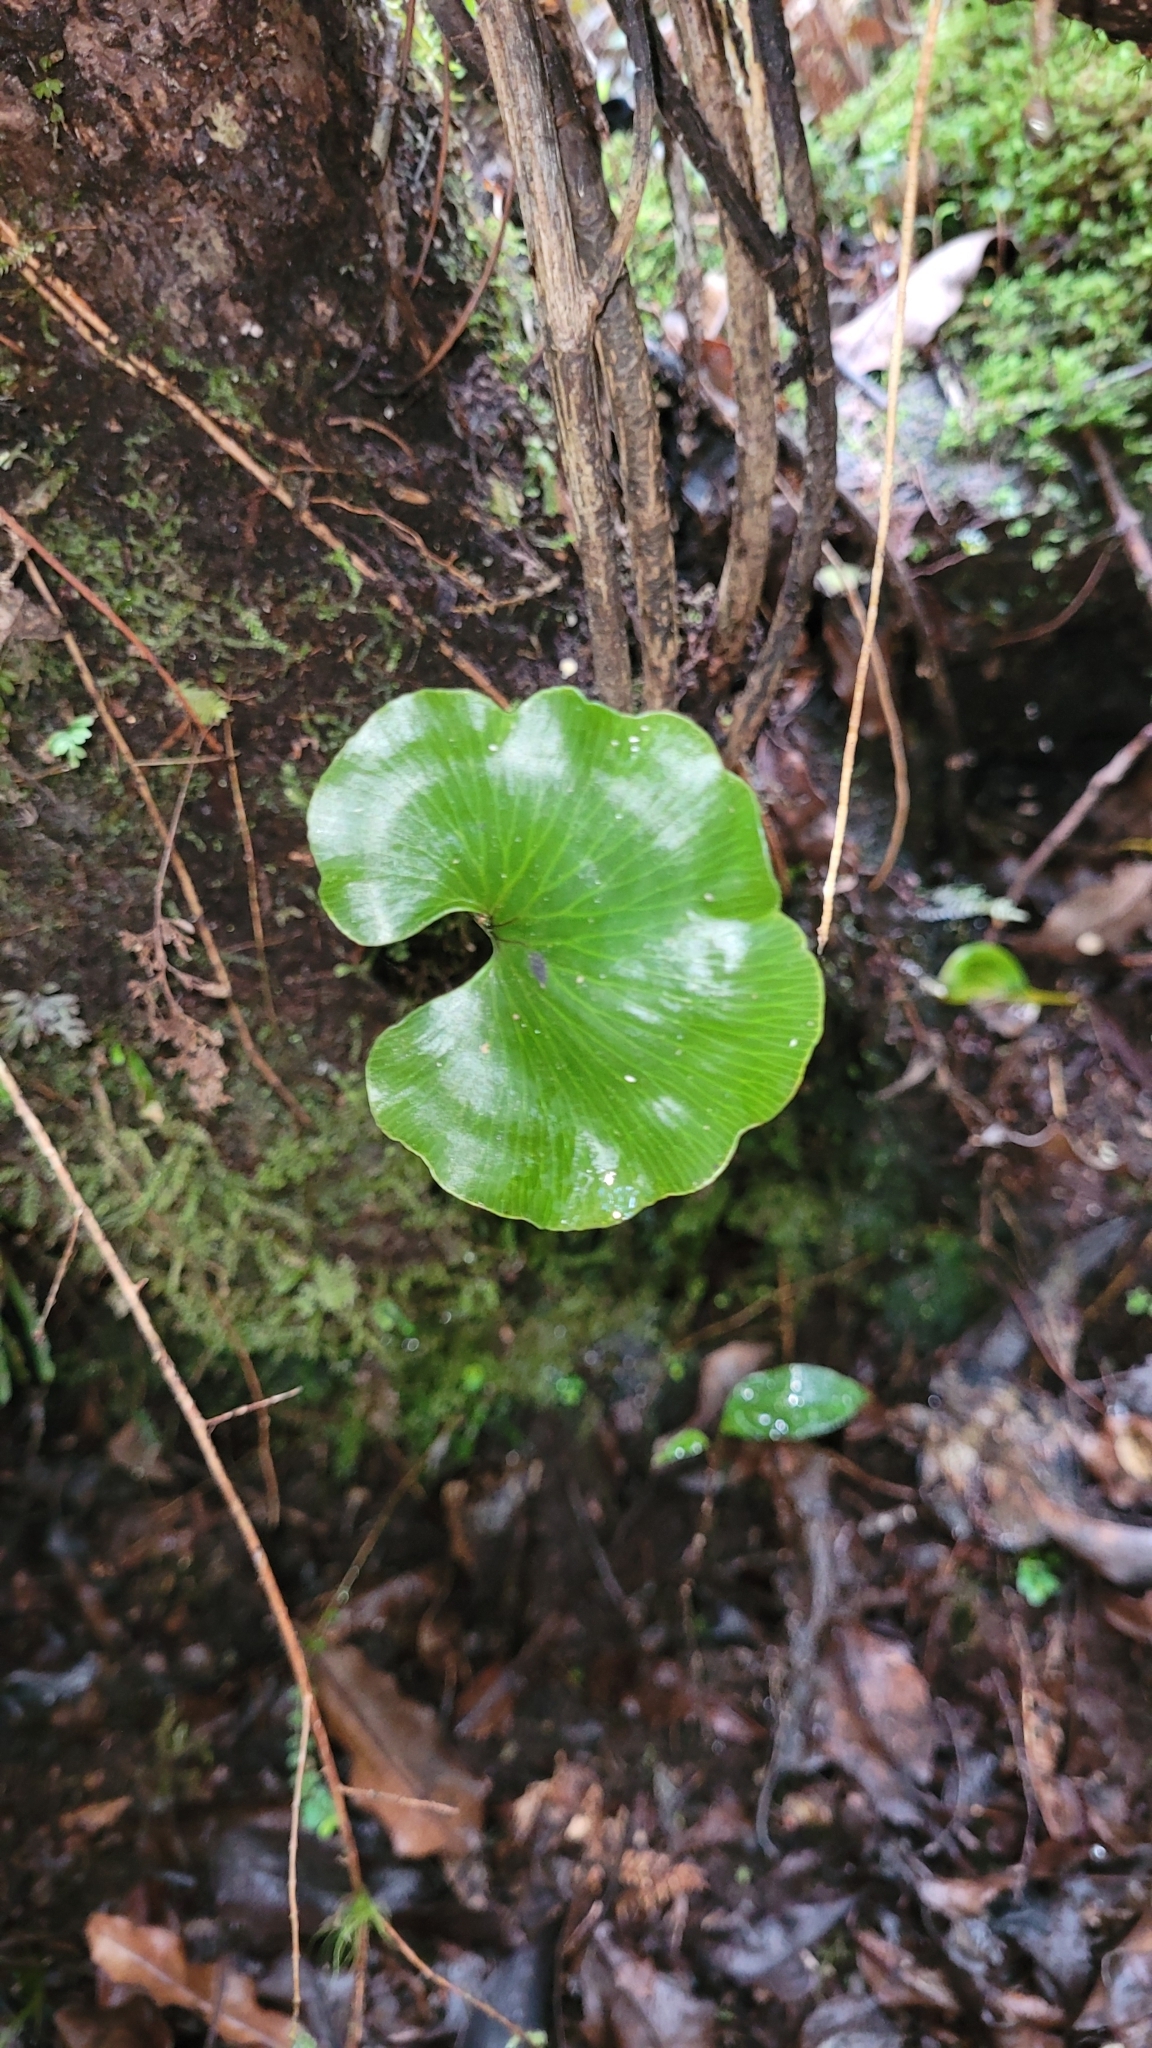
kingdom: Plantae
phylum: Tracheophyta
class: Polypodiopsida
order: Hymenophyllales
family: Hymenophyllaceae
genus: Hymenophyllum
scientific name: Hymenophyllum nephrophyllum
